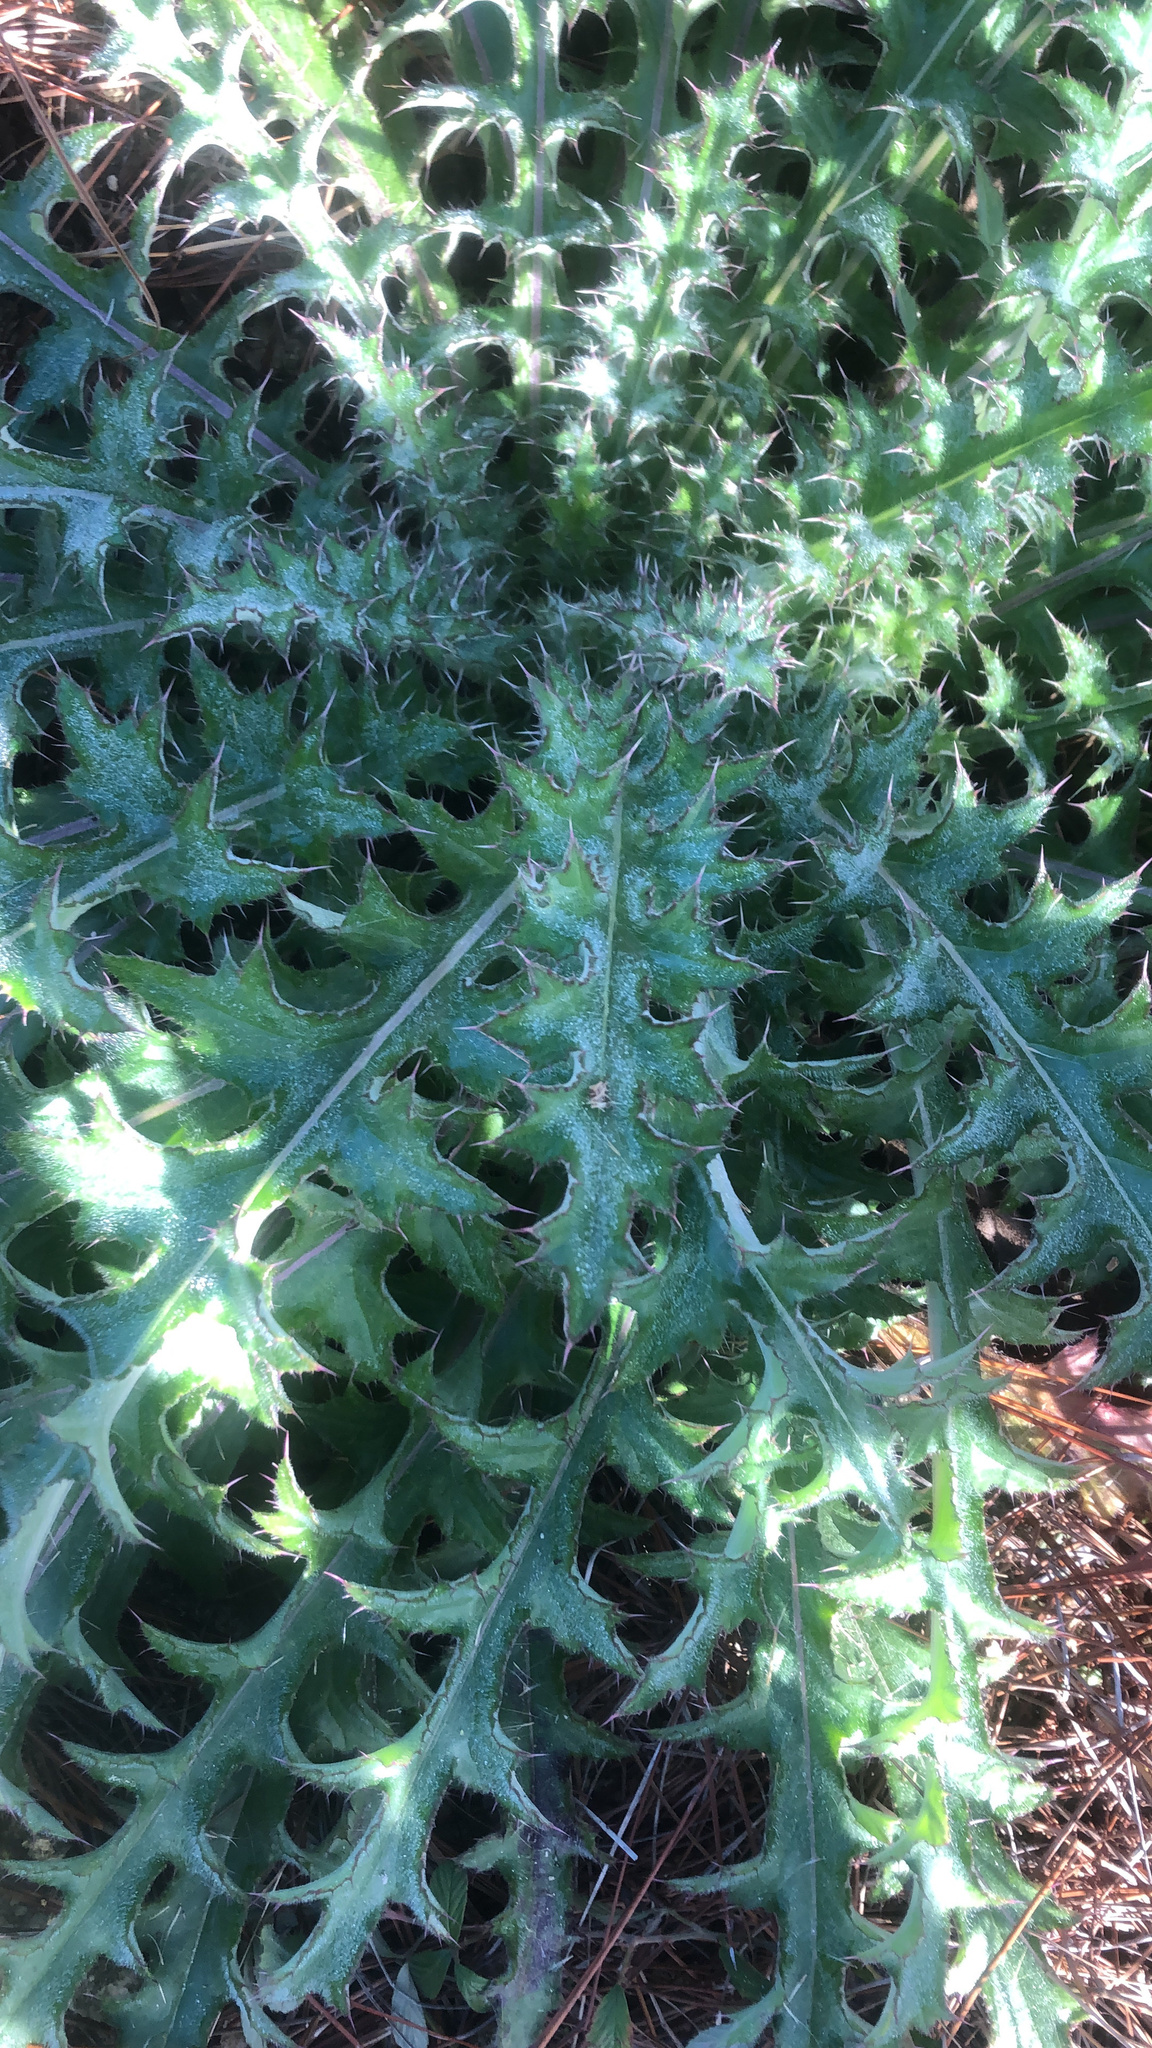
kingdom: Plantae
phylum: Tracheophyta
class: Magnoliopsida
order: Asterales
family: Asteraceae
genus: Cirsium
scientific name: Cirsium horridulum
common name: Bristly thistle
